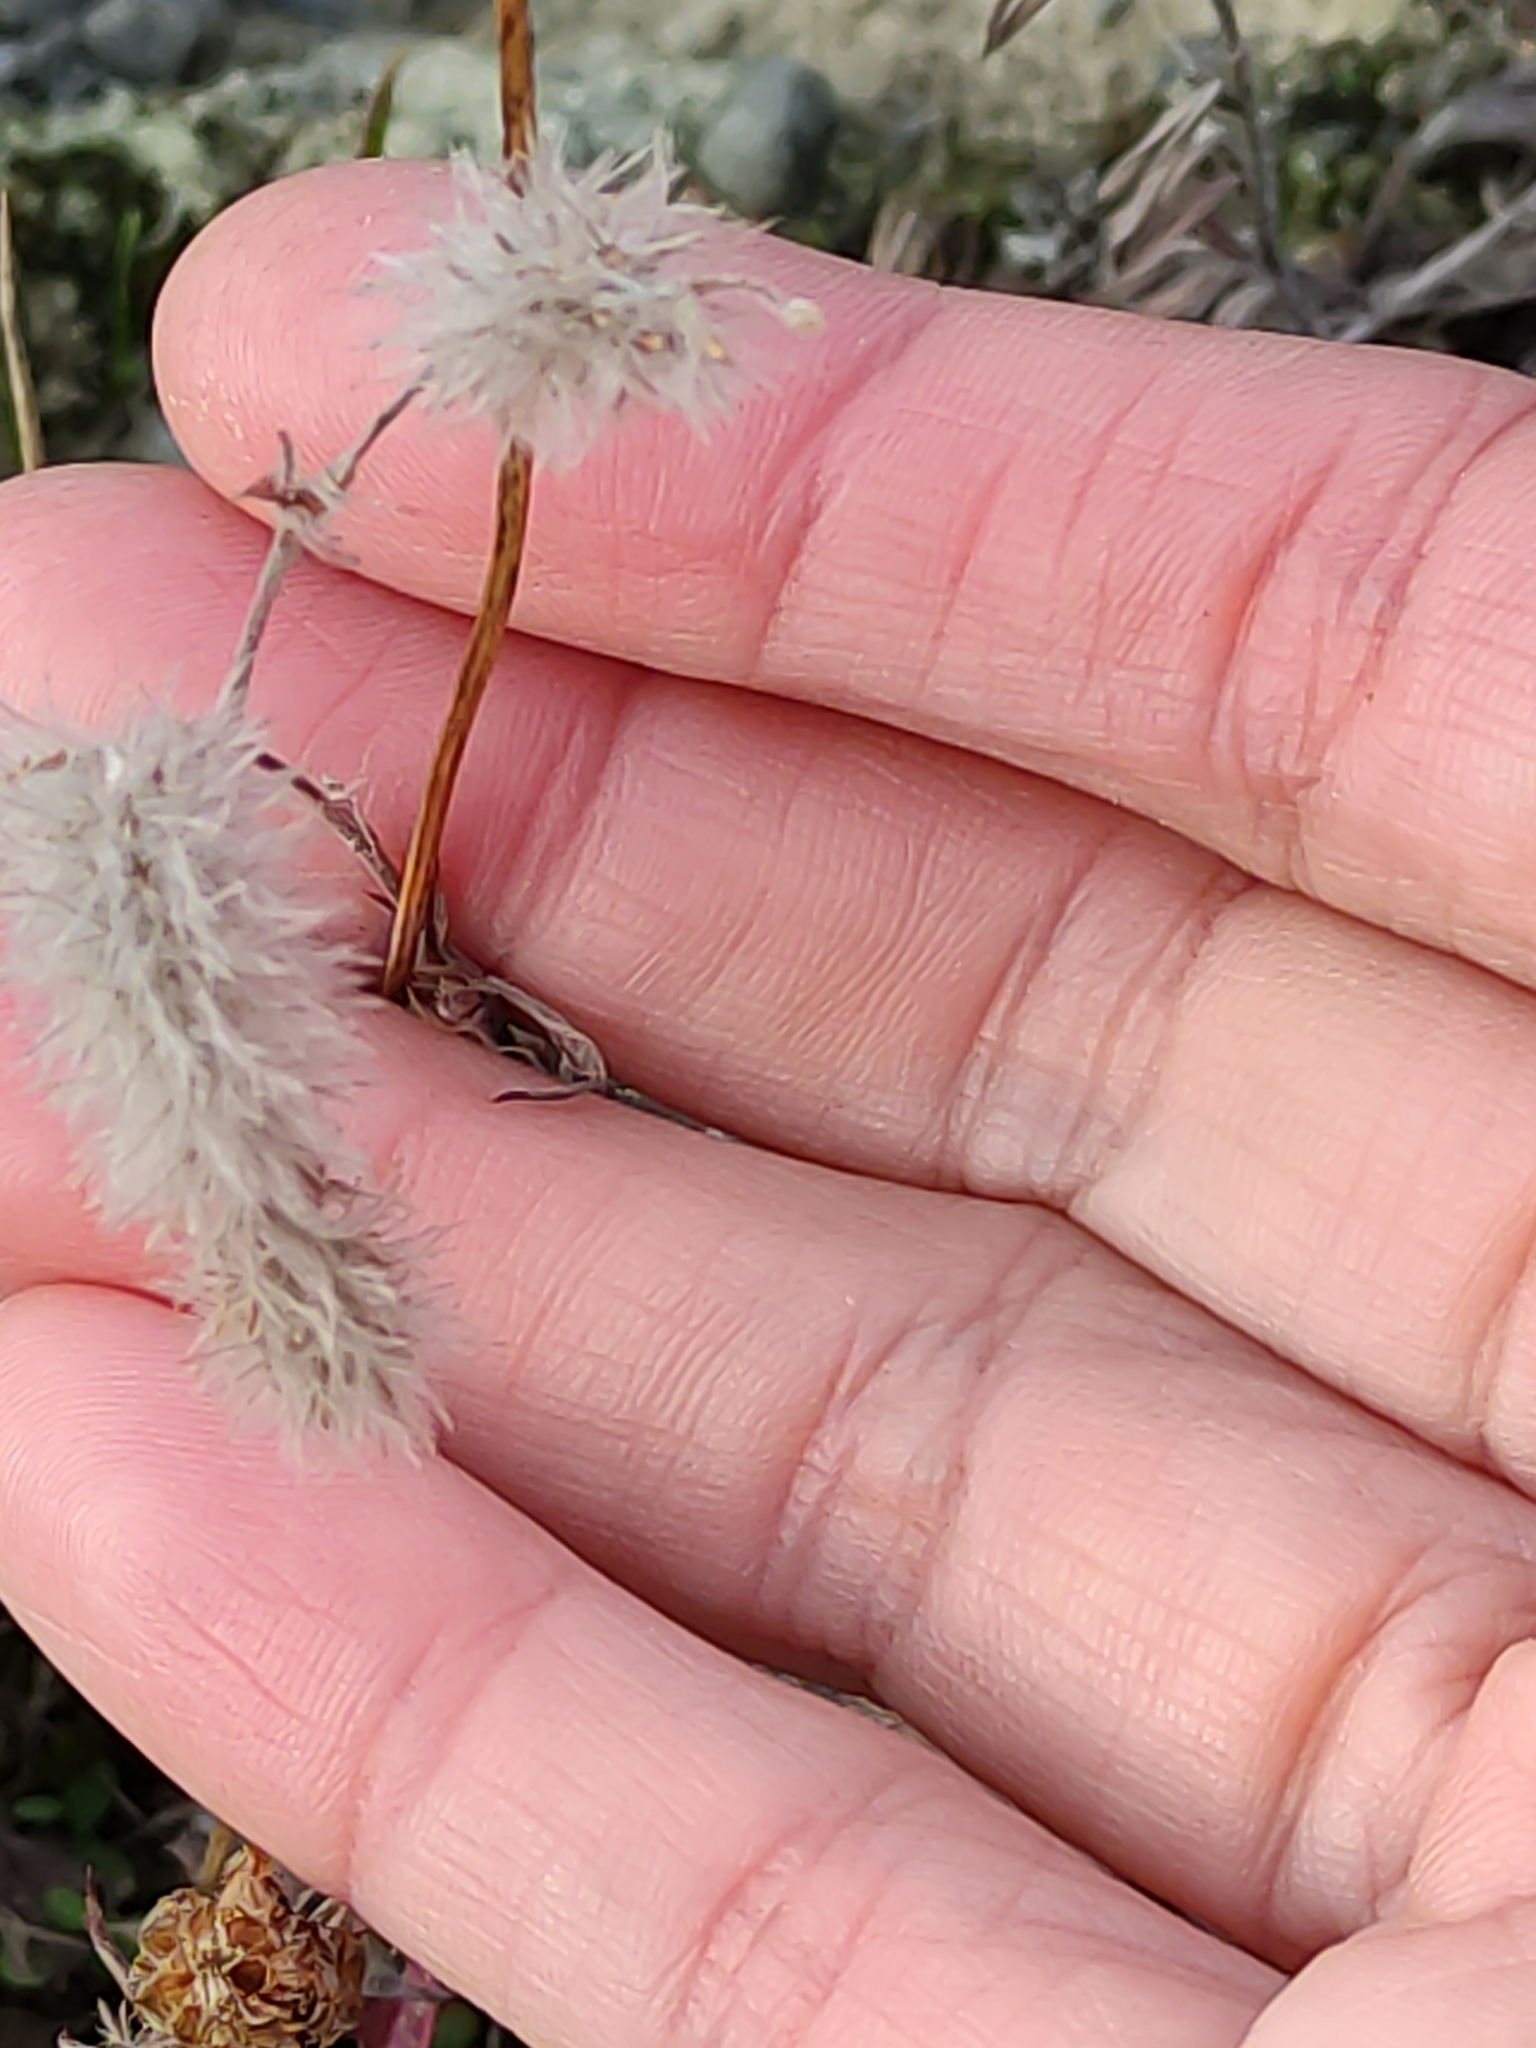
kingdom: Plantae
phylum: Tracheophyta
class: Magnoliopsida
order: Fabales
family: Fabaceae
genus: Trifolium
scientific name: Trifolium arvense
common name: Hare's-foot clover
